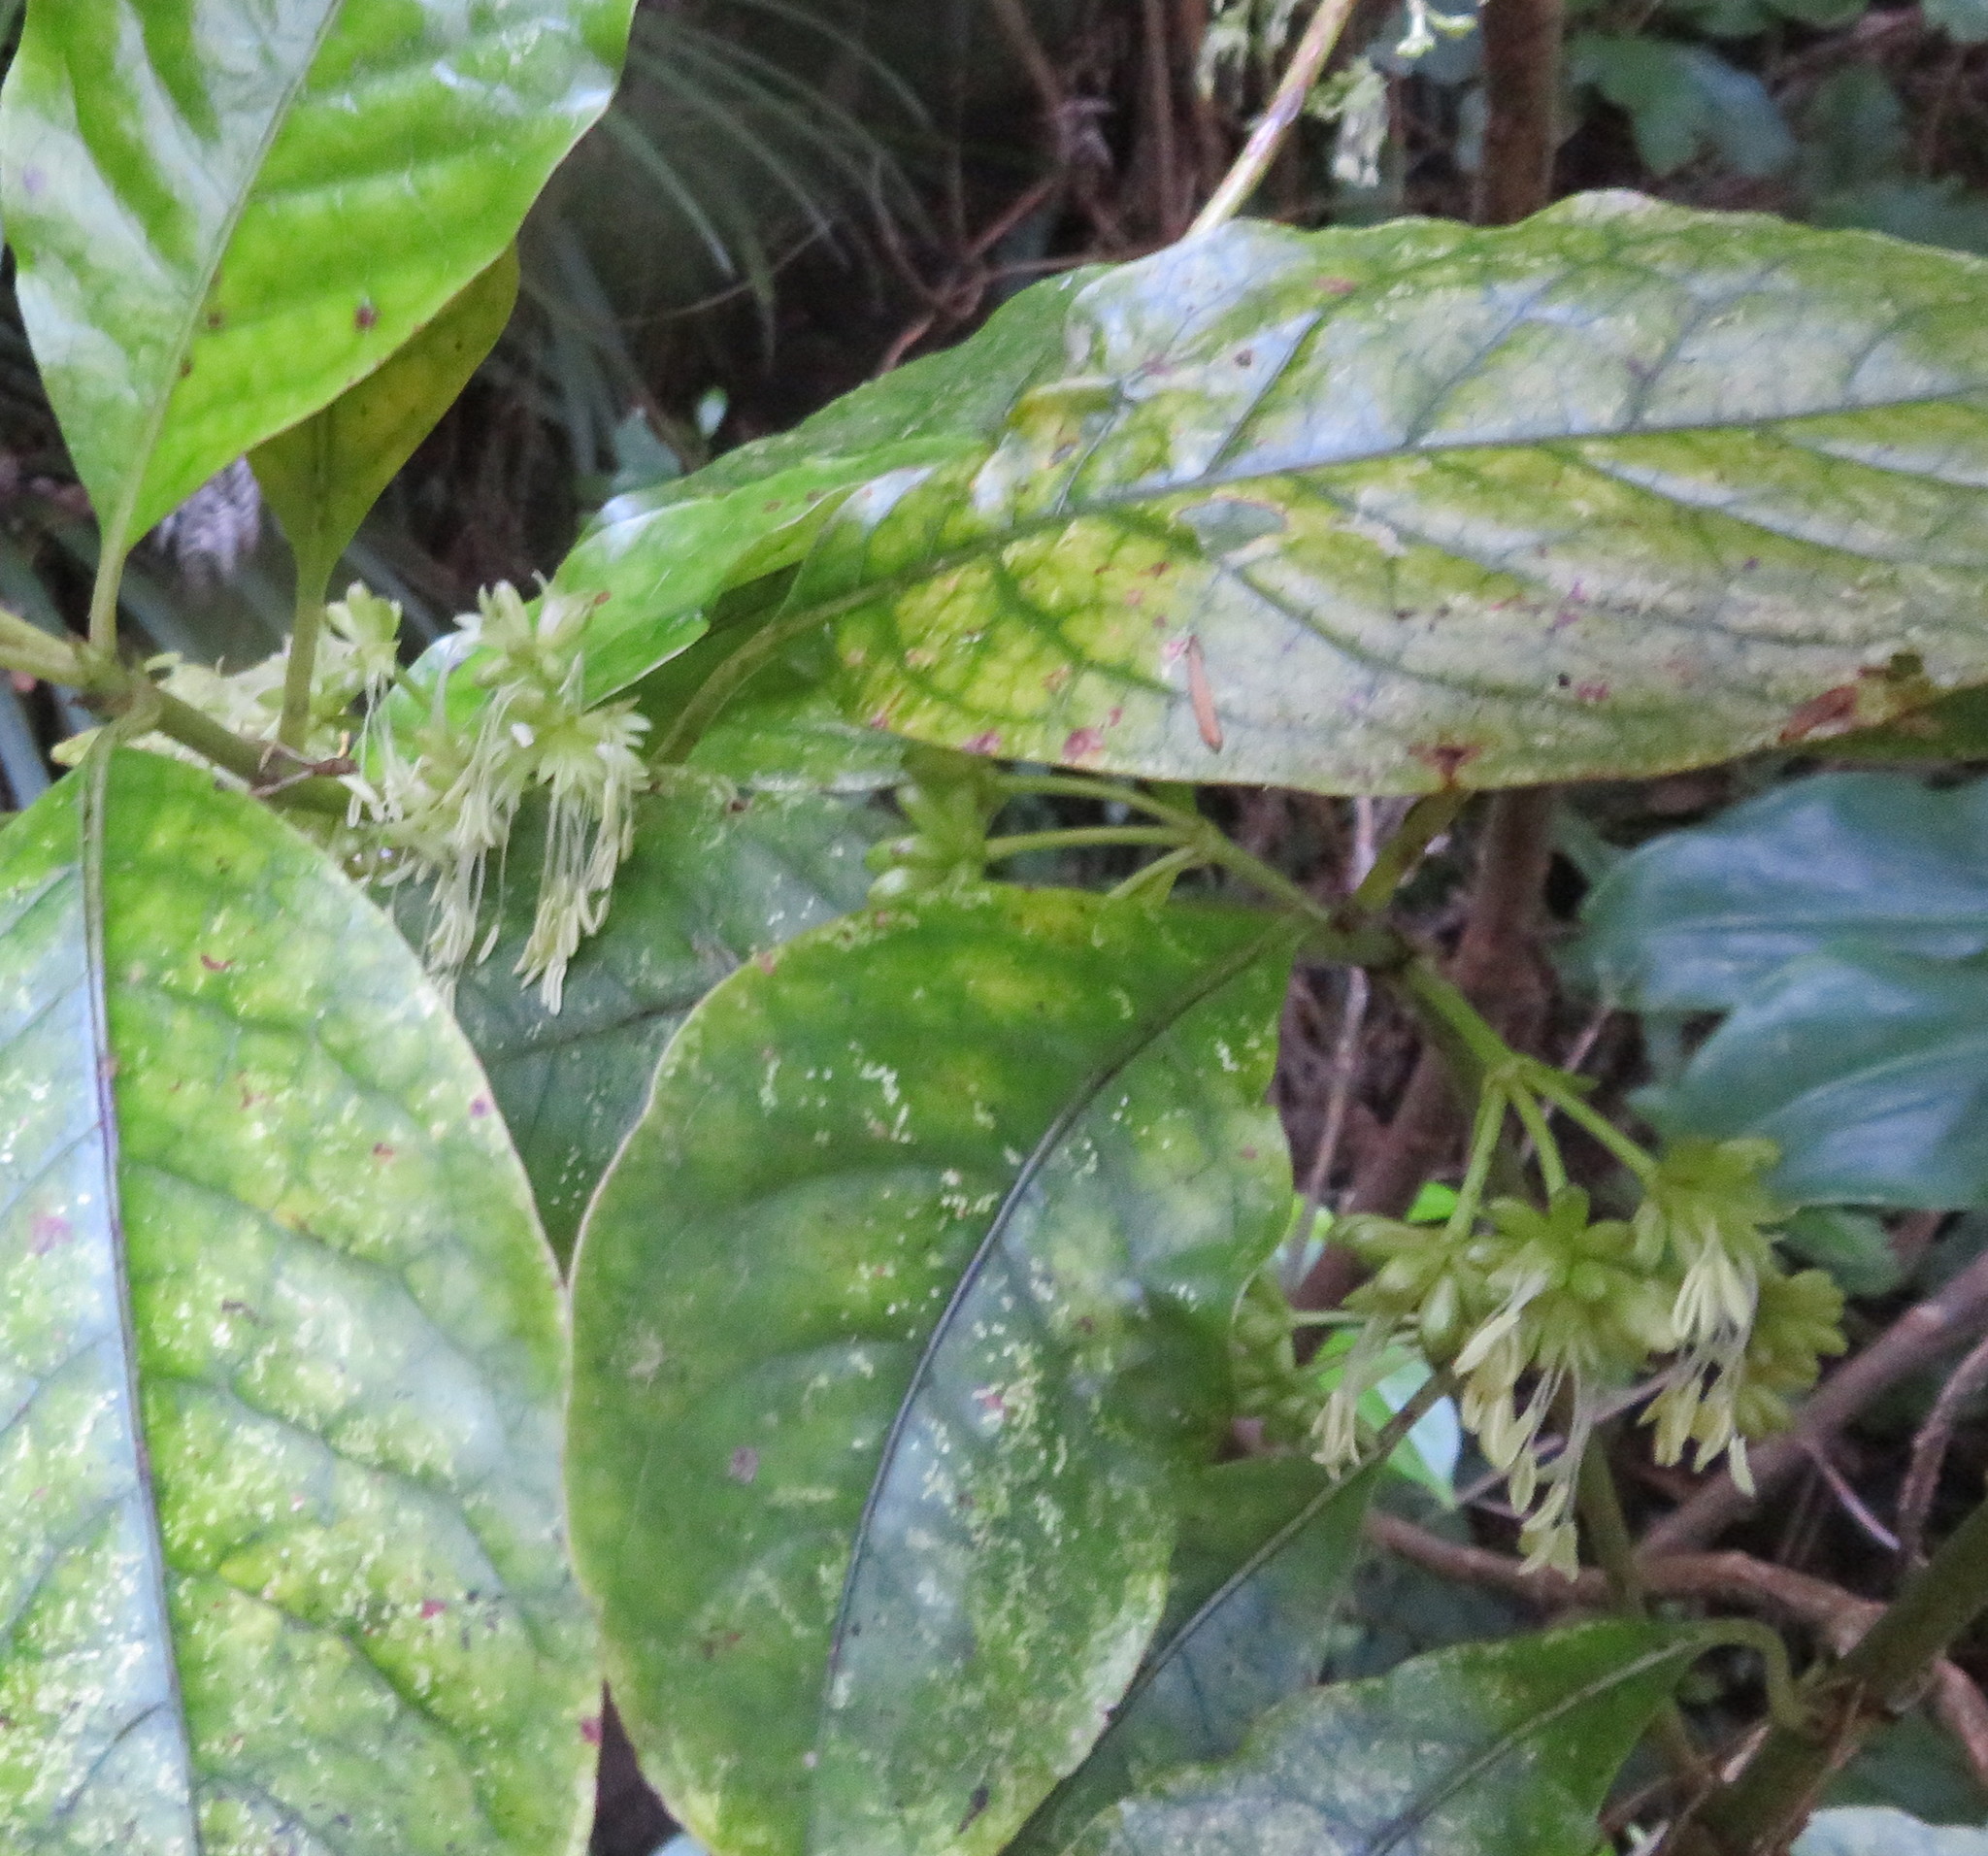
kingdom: Plantae
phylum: Tracheophyta
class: Magnoliopsida
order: Gentianales
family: Rubiaceae
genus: Coprosma
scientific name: Coprosma autumnalis
